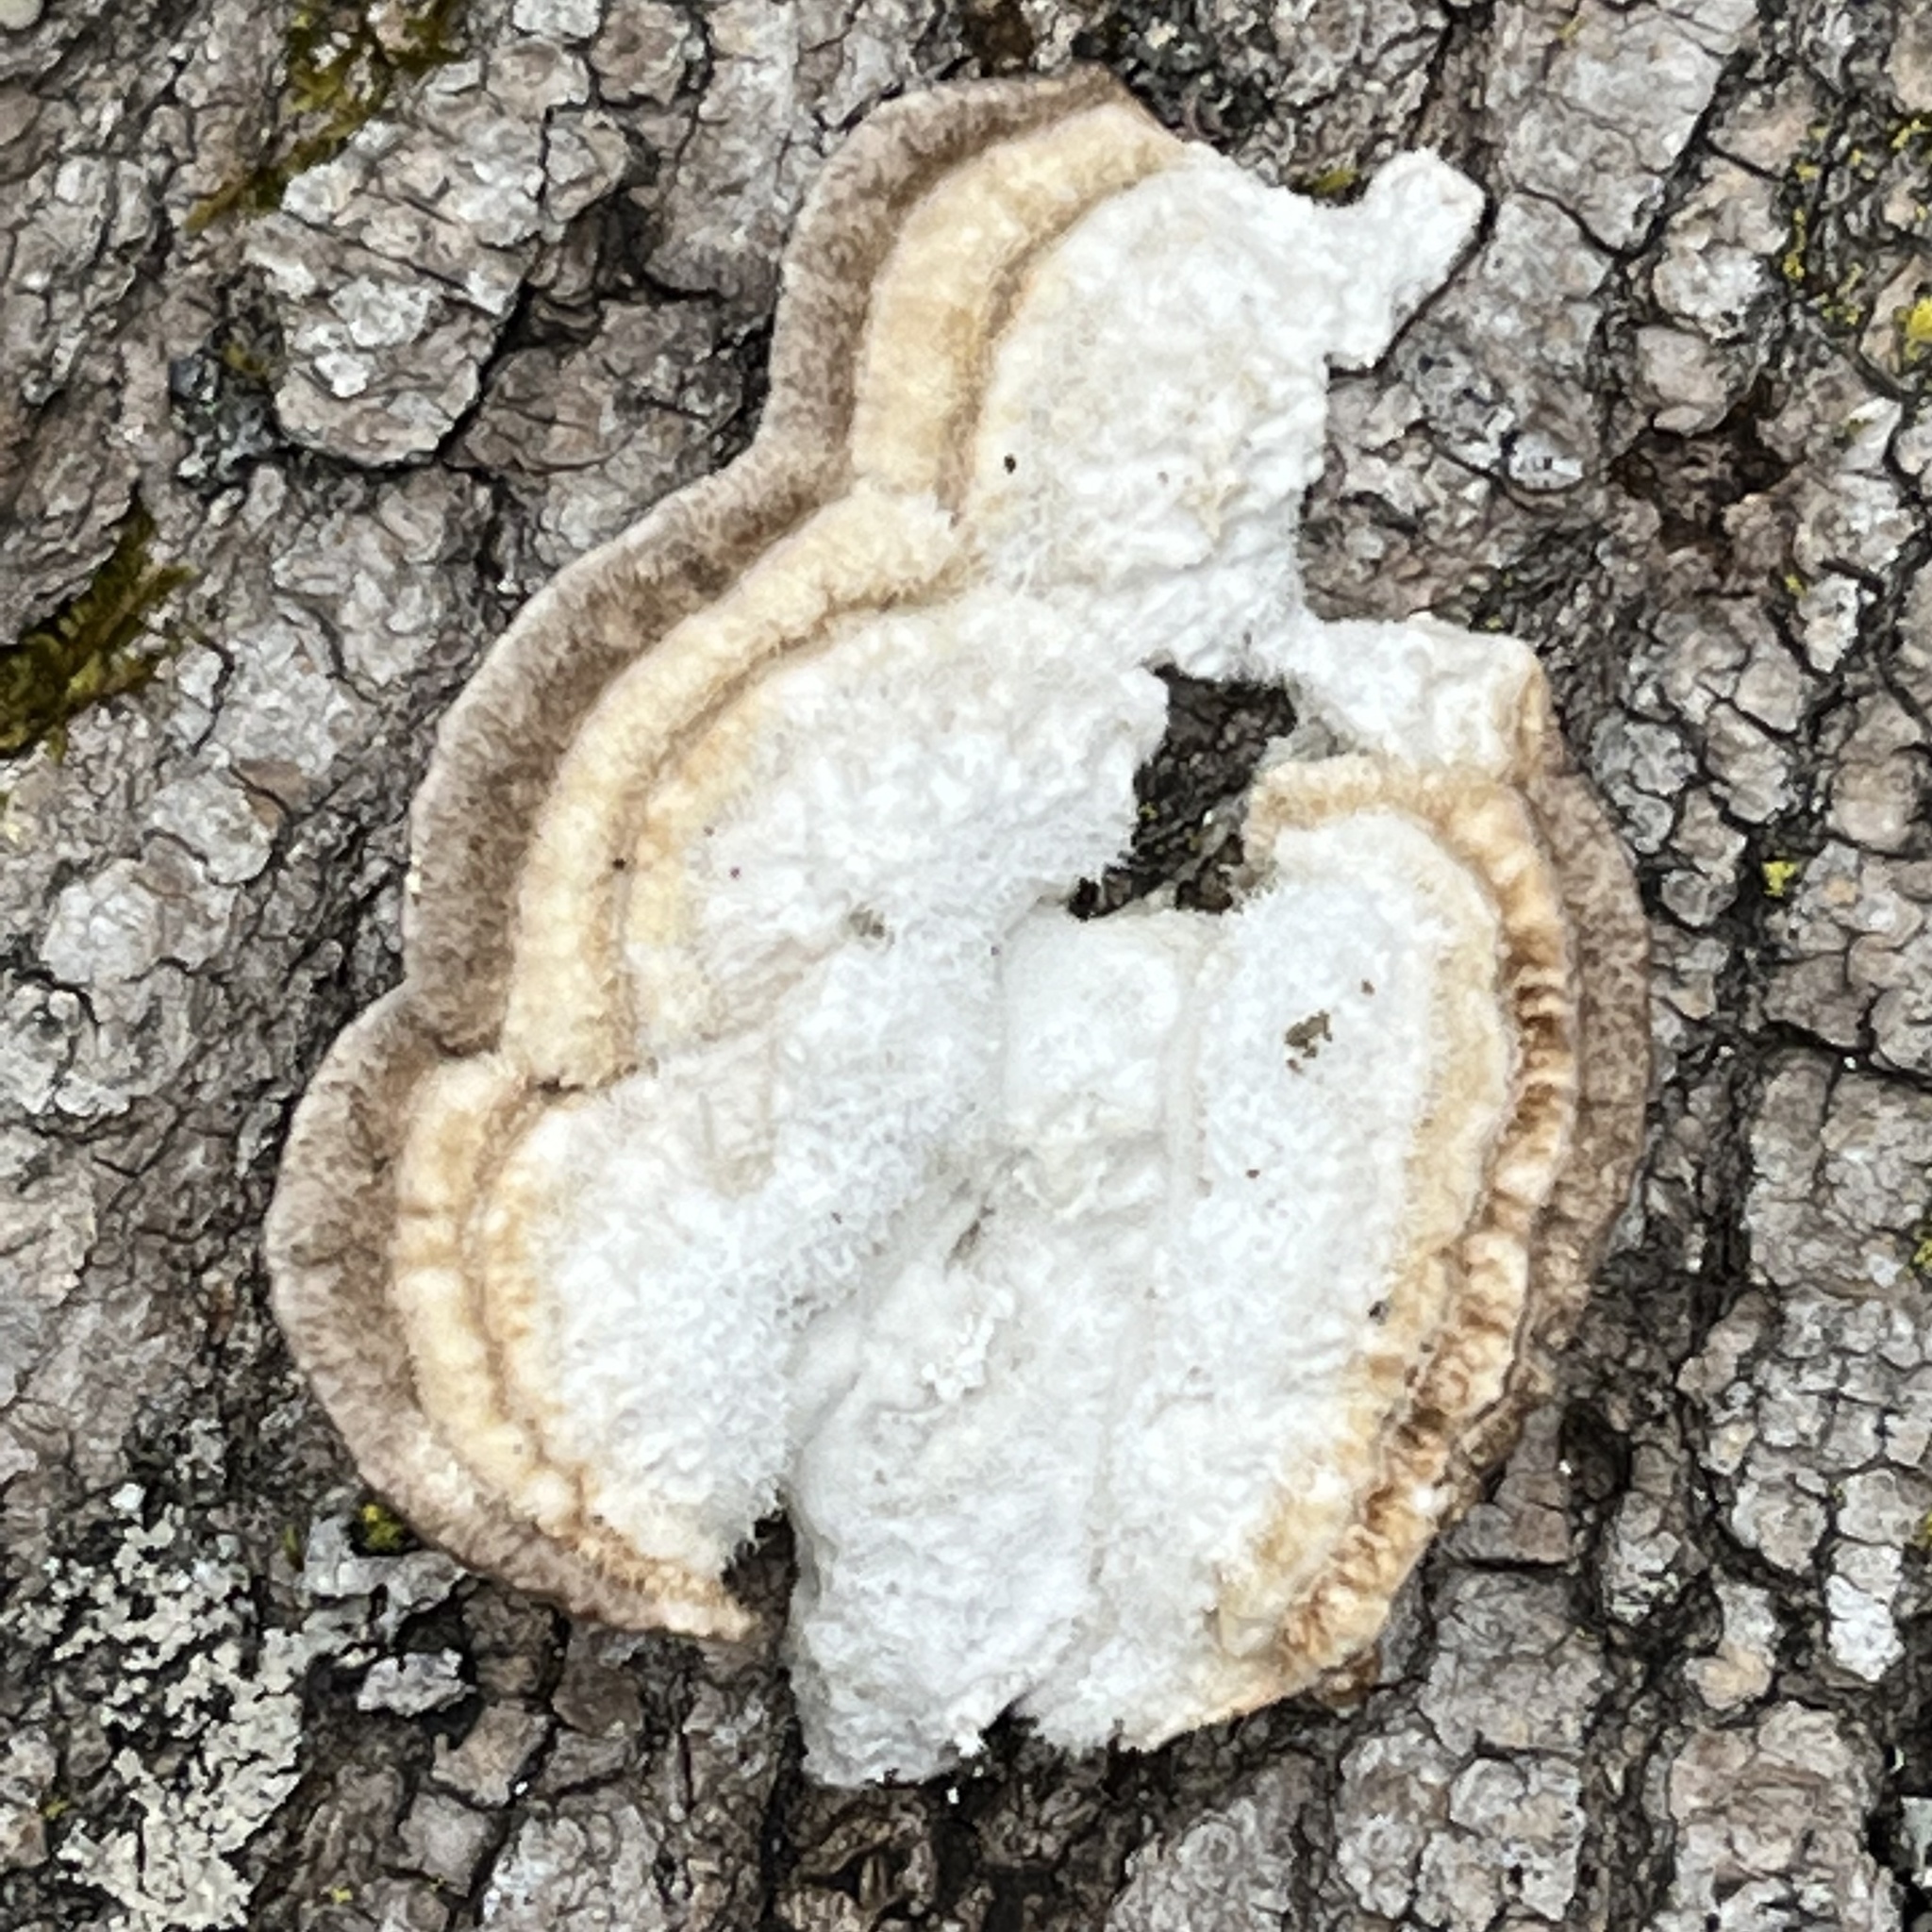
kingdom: Fungi
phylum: Basidiomycota
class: Agaricomycetes
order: Polyporales
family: Polyporaceae
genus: Trametes
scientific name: Trametes hirsuta
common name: Hairy bracket
